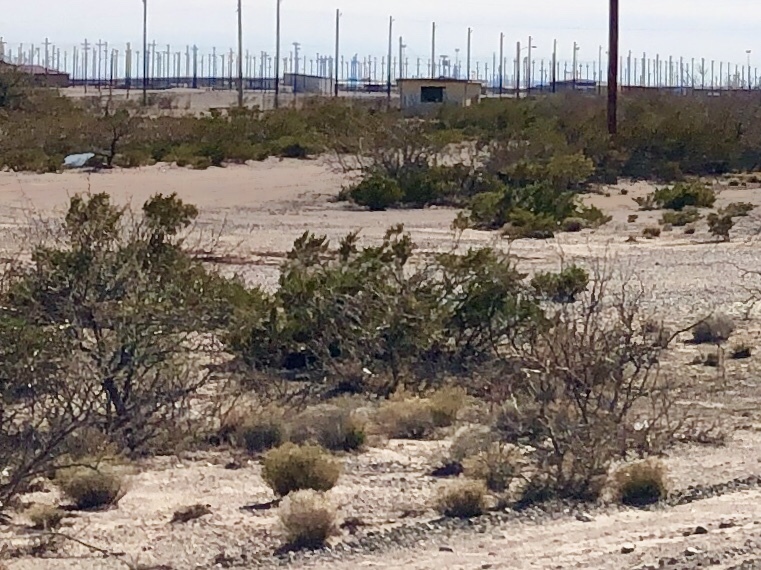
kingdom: Plantae
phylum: Tracheophyta
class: Magnoliopsida
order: Zygophyllales
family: Zygophyllaceae
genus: Larrea
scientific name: Larrea tridentata
